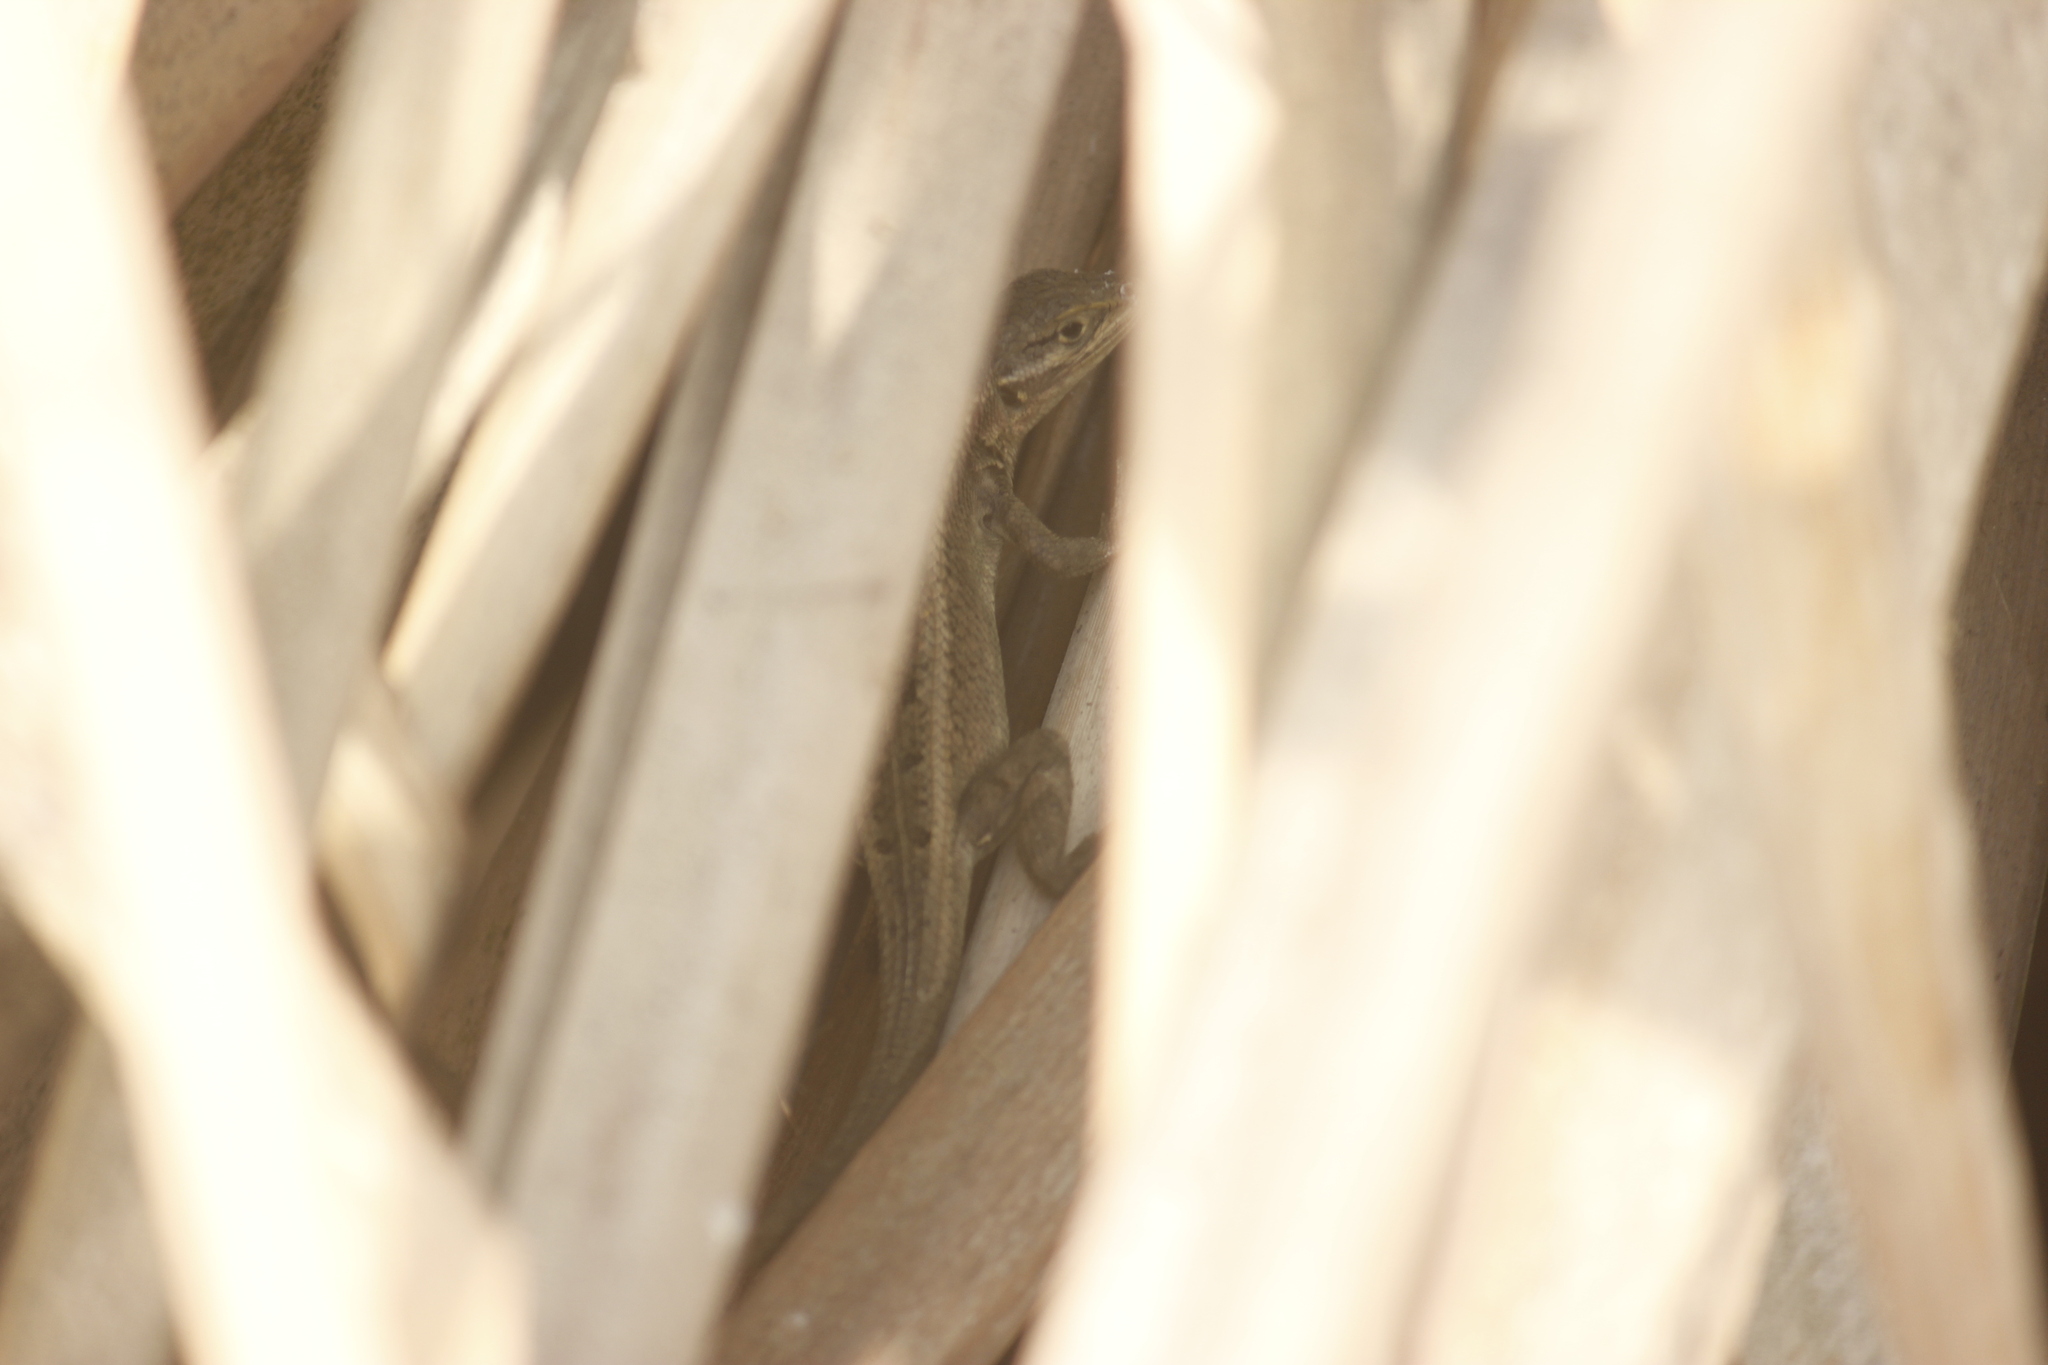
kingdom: Animalia
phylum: Chordata
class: Squamata
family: Tropiduridae
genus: Stenocercus
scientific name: Stenocercus modestus
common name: Modest whorltail iguana
